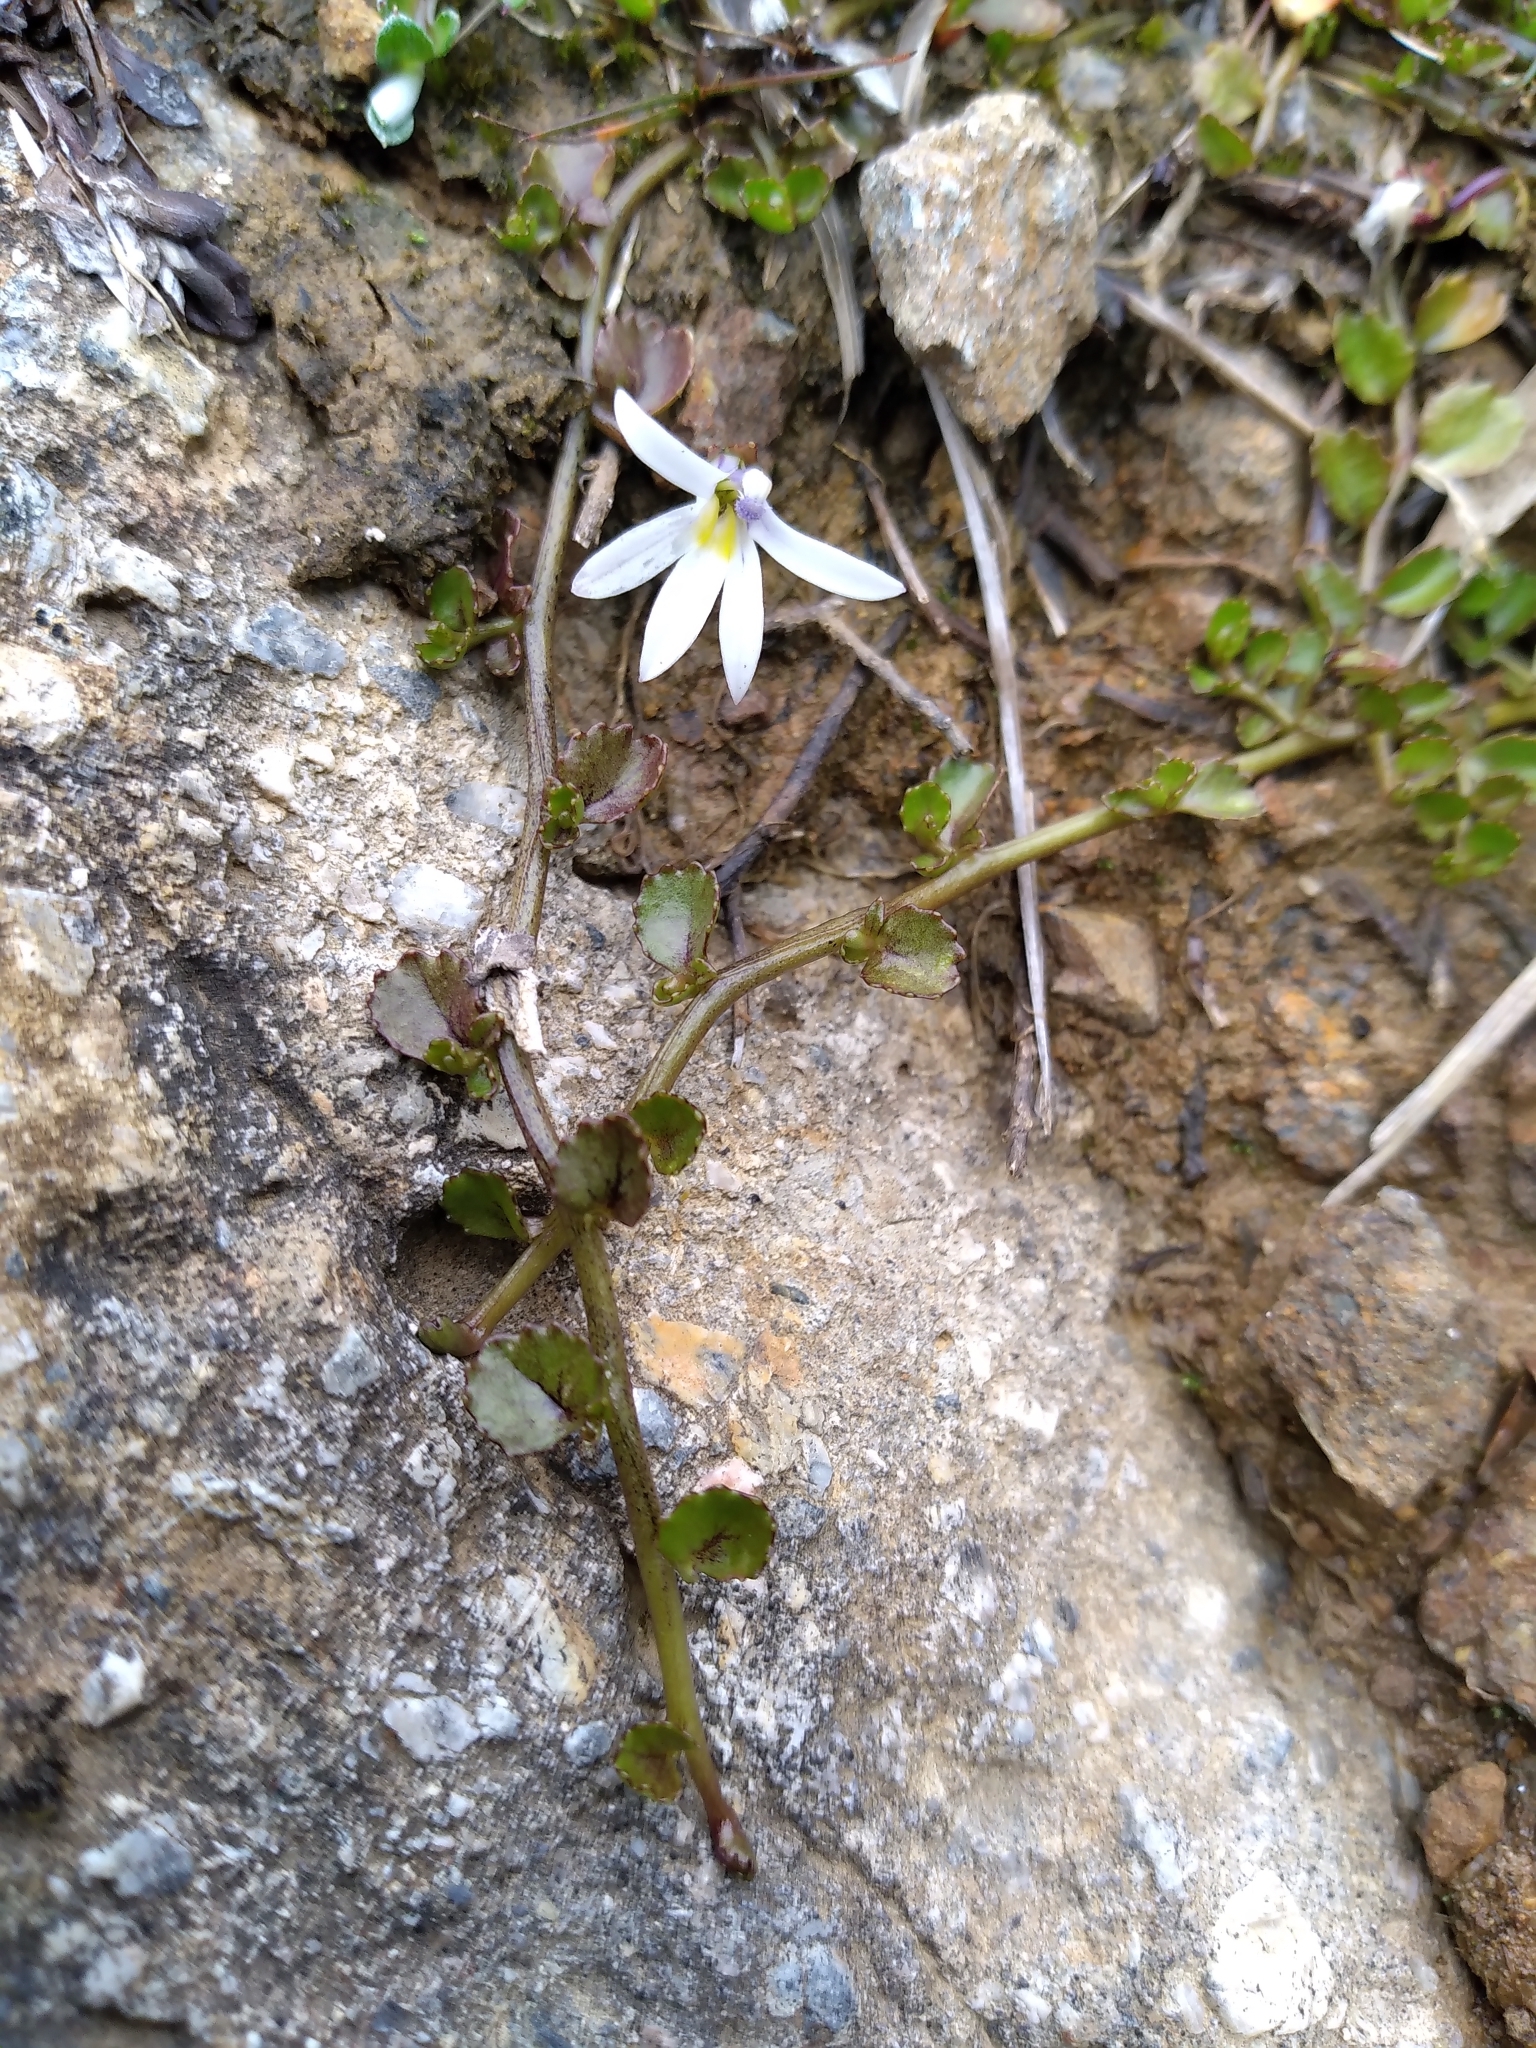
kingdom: Plantae
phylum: Tracheophyta
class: Magnoliopsida
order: Asterales
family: Campanulaceae
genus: Lobelia
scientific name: Lobelia angulata
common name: Lawn lobelia
